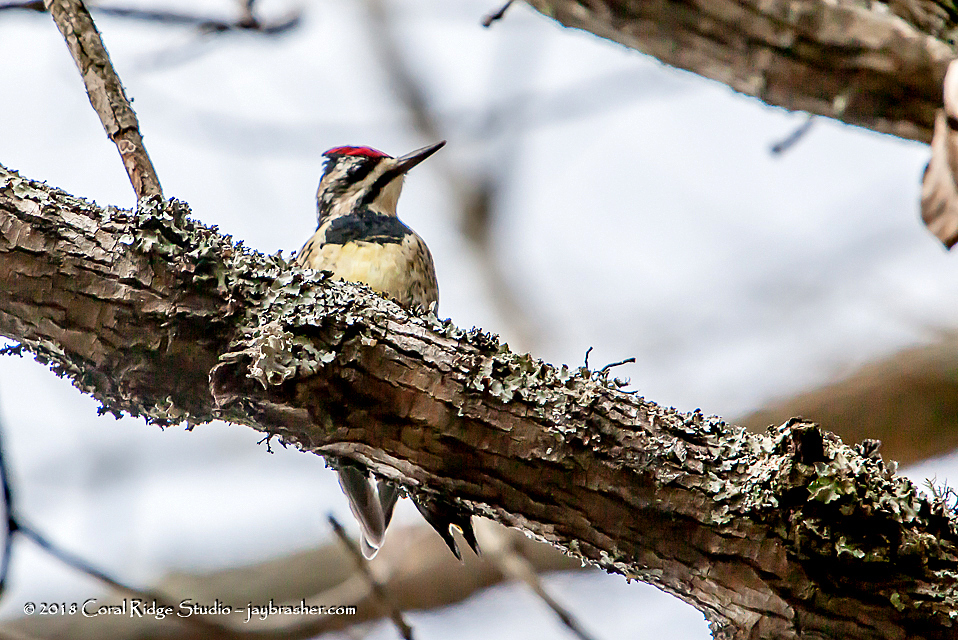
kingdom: Animalia
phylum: Chordata
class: Aves
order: Piciformes
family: Picidae
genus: Sphyrapicus
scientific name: Sphyrapicus varius
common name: Yellow-bellied sapsucker
